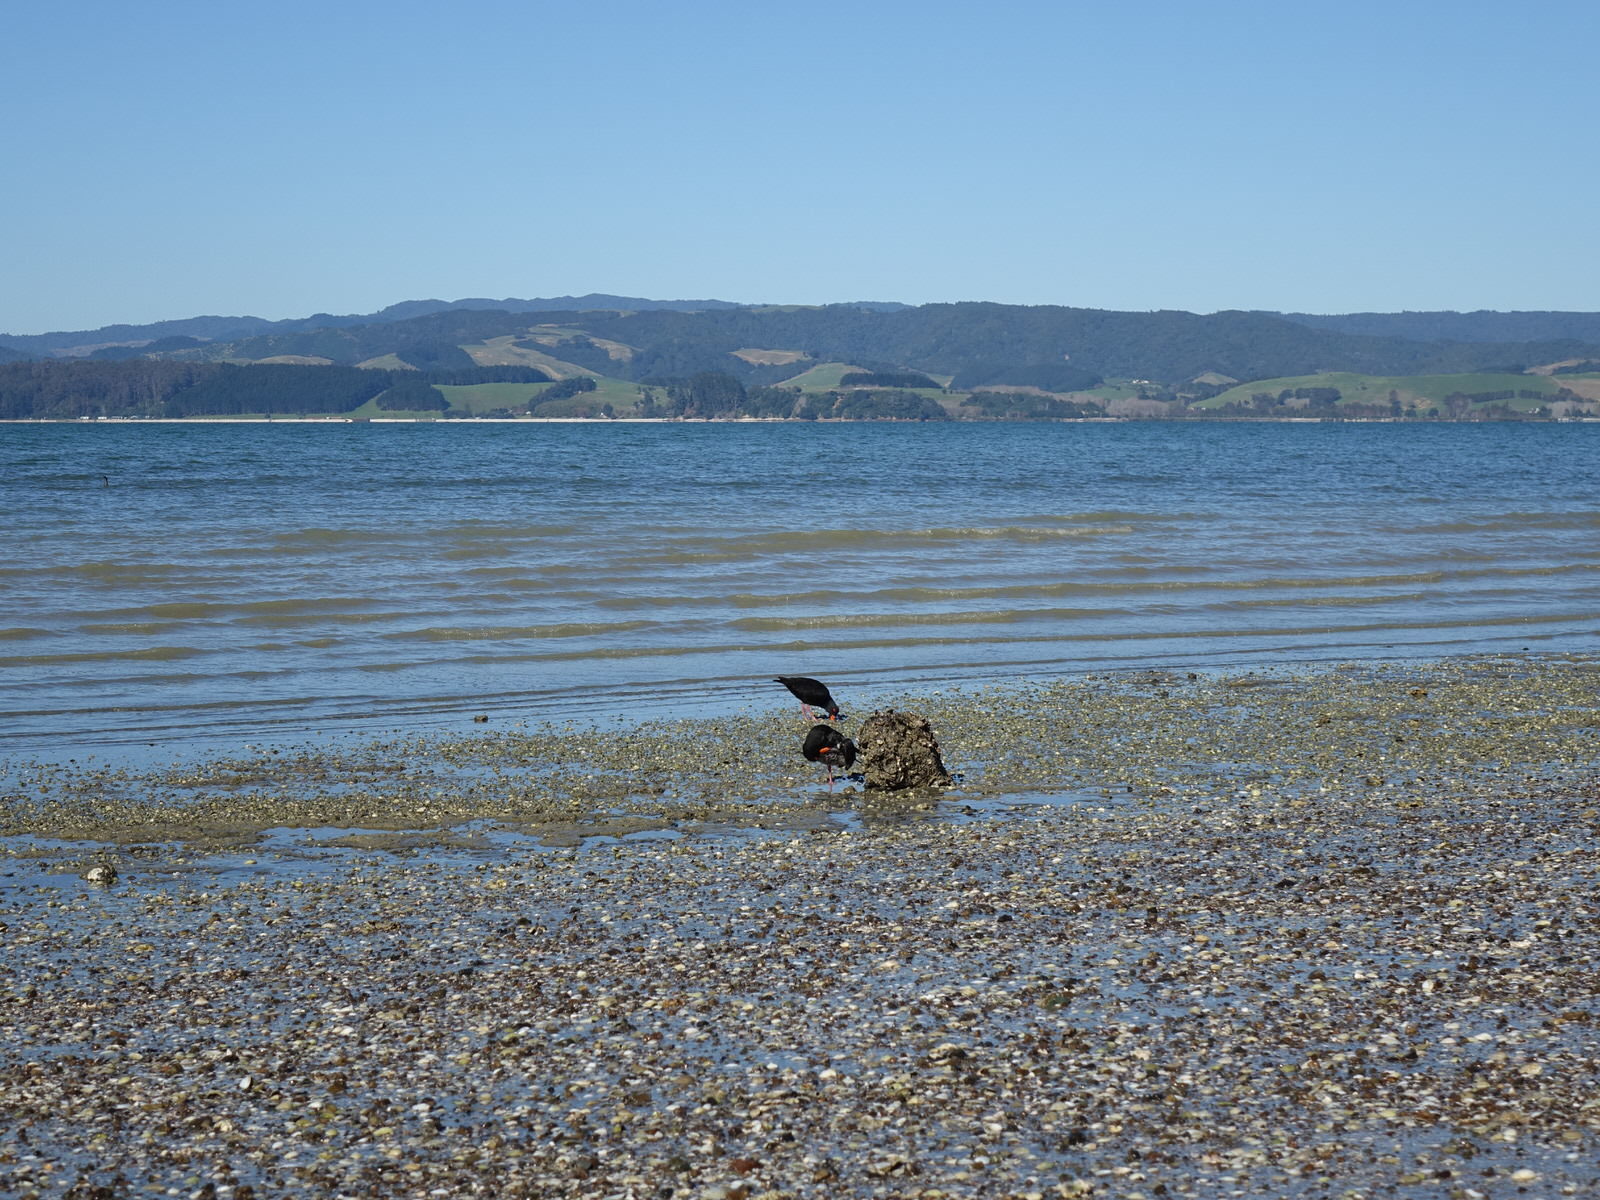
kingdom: Animalia
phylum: Chordata
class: Aves
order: Charadriiformes
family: Haematopodidae
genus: Haematopus
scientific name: Haematopus unicolor
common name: Variable oystercatcher
